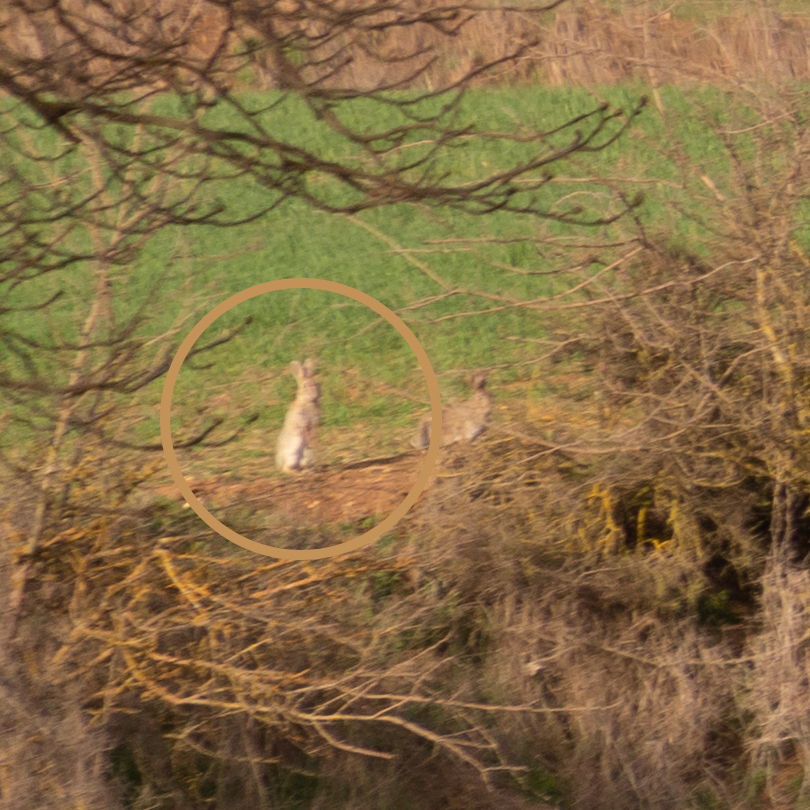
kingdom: Animalia
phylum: Chordata
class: Mammalia
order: Lagomorpha
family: Leporidae
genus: Oryctolagus
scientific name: Oryctolagus cuniculus
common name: European rabbit
